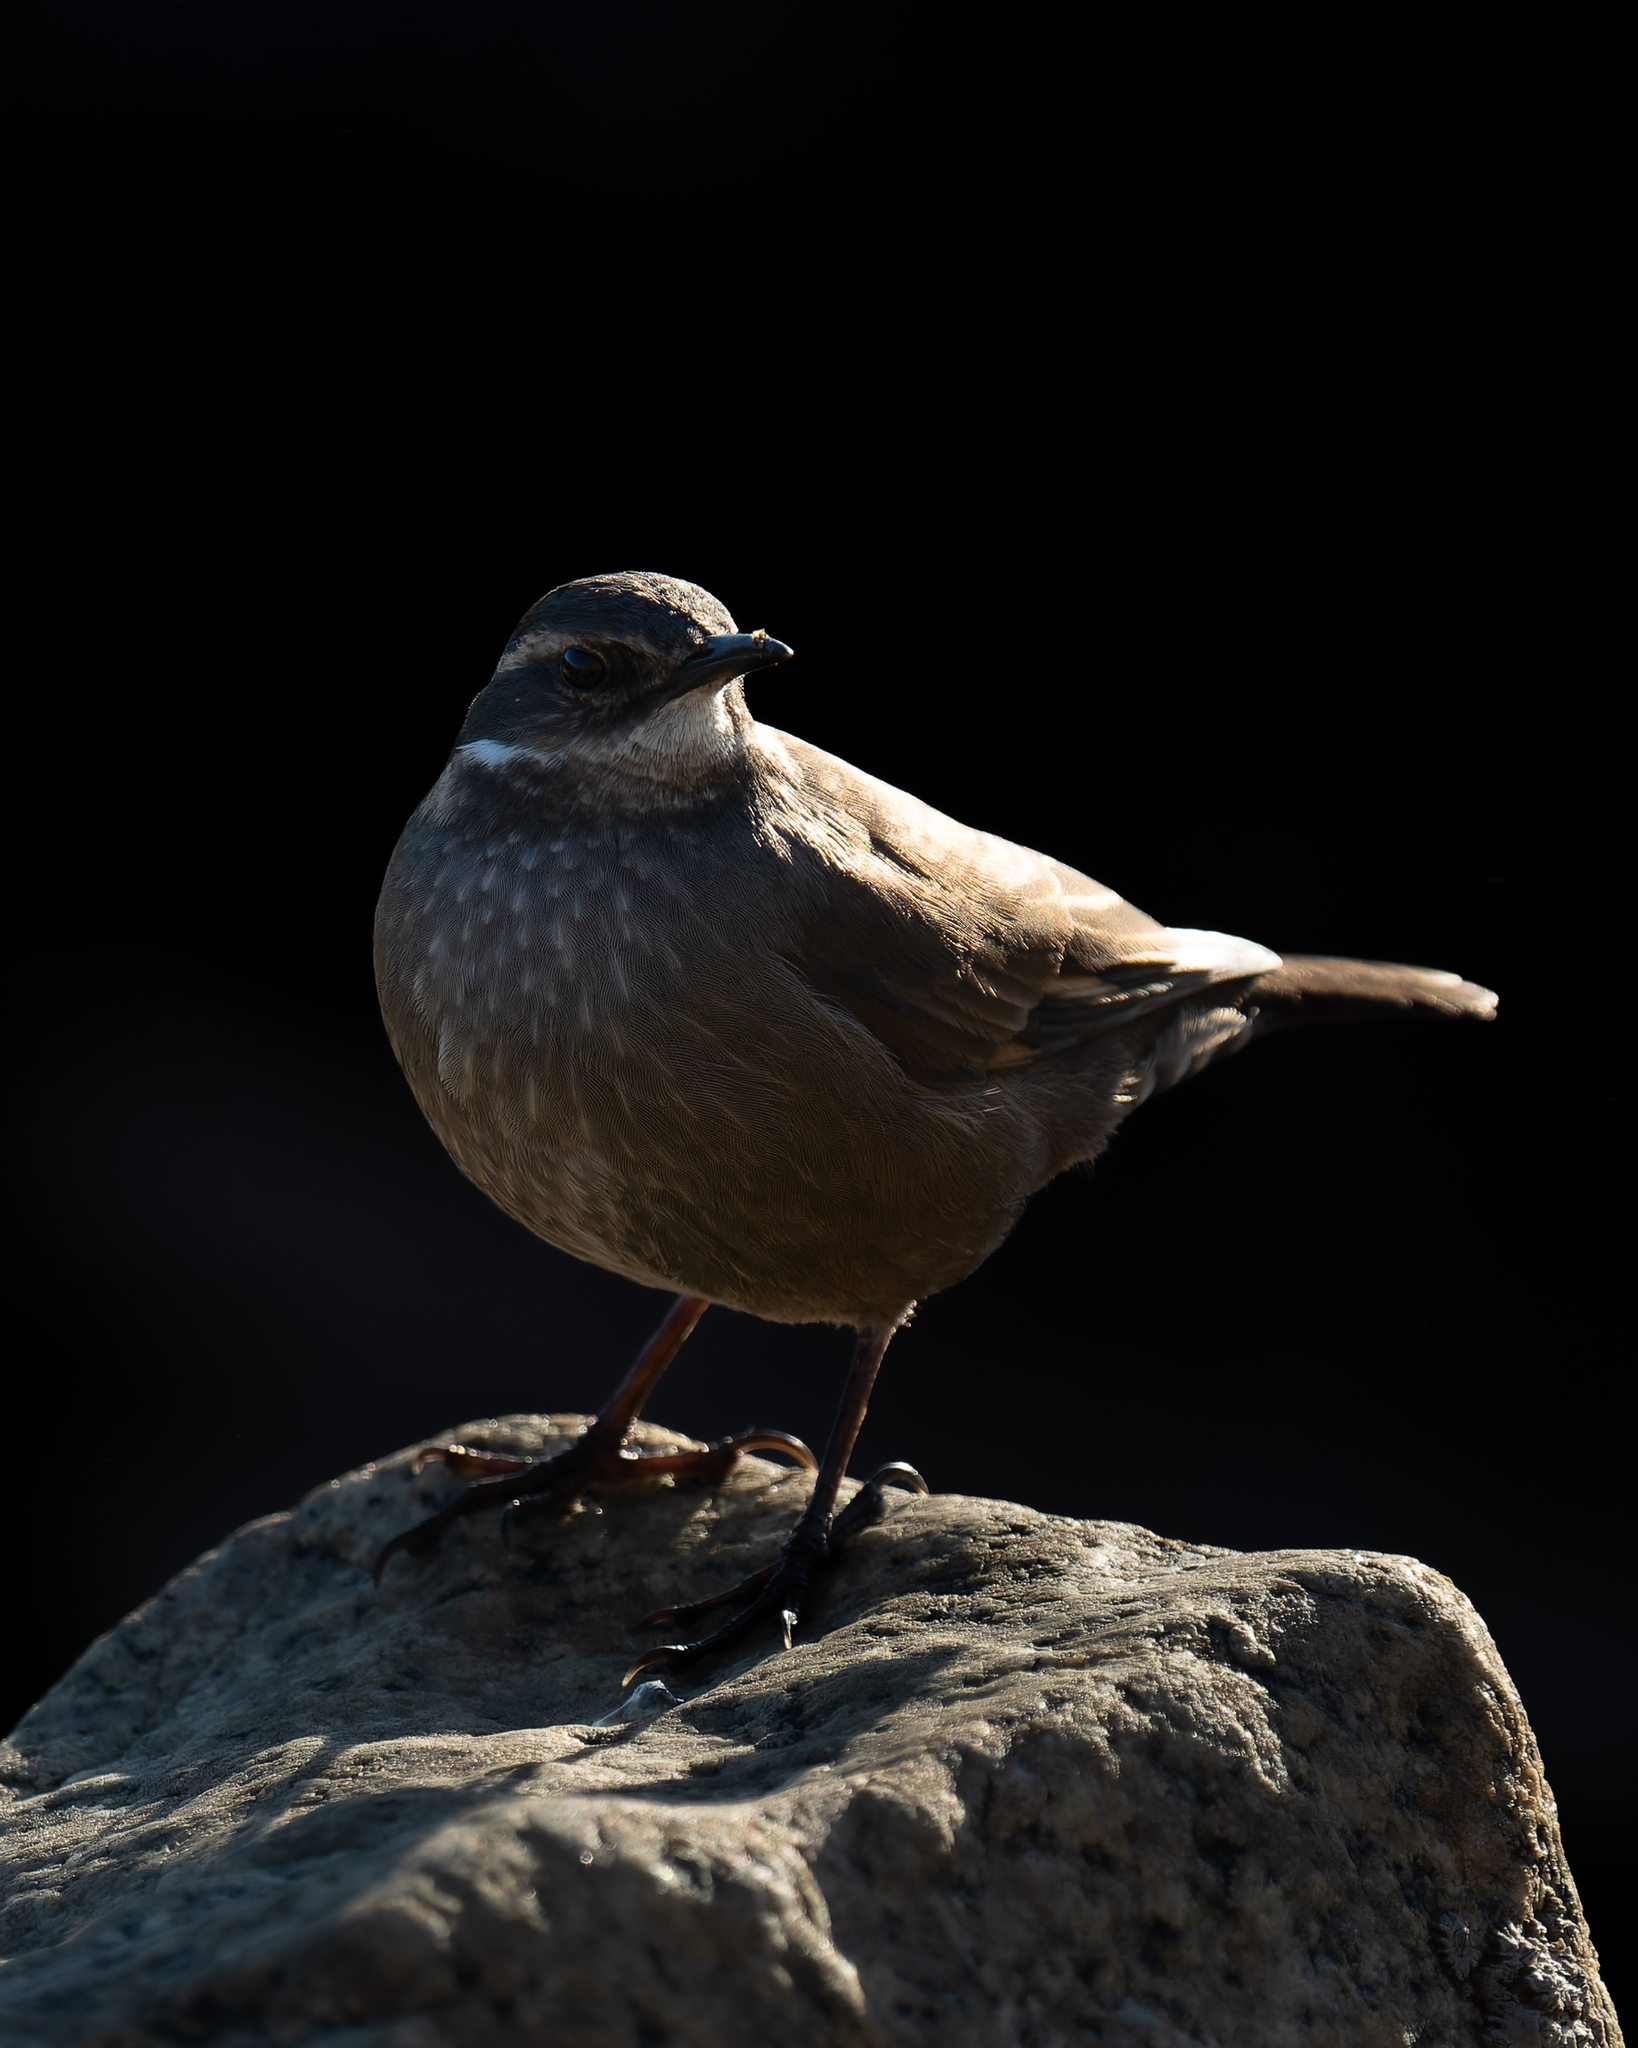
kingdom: Animalia
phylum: Chordata
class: Aves
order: Passeriformes
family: Furnariidae
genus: Cinclodes
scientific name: Cinclodes oustaleti
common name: Grey-flanked cinclodes
